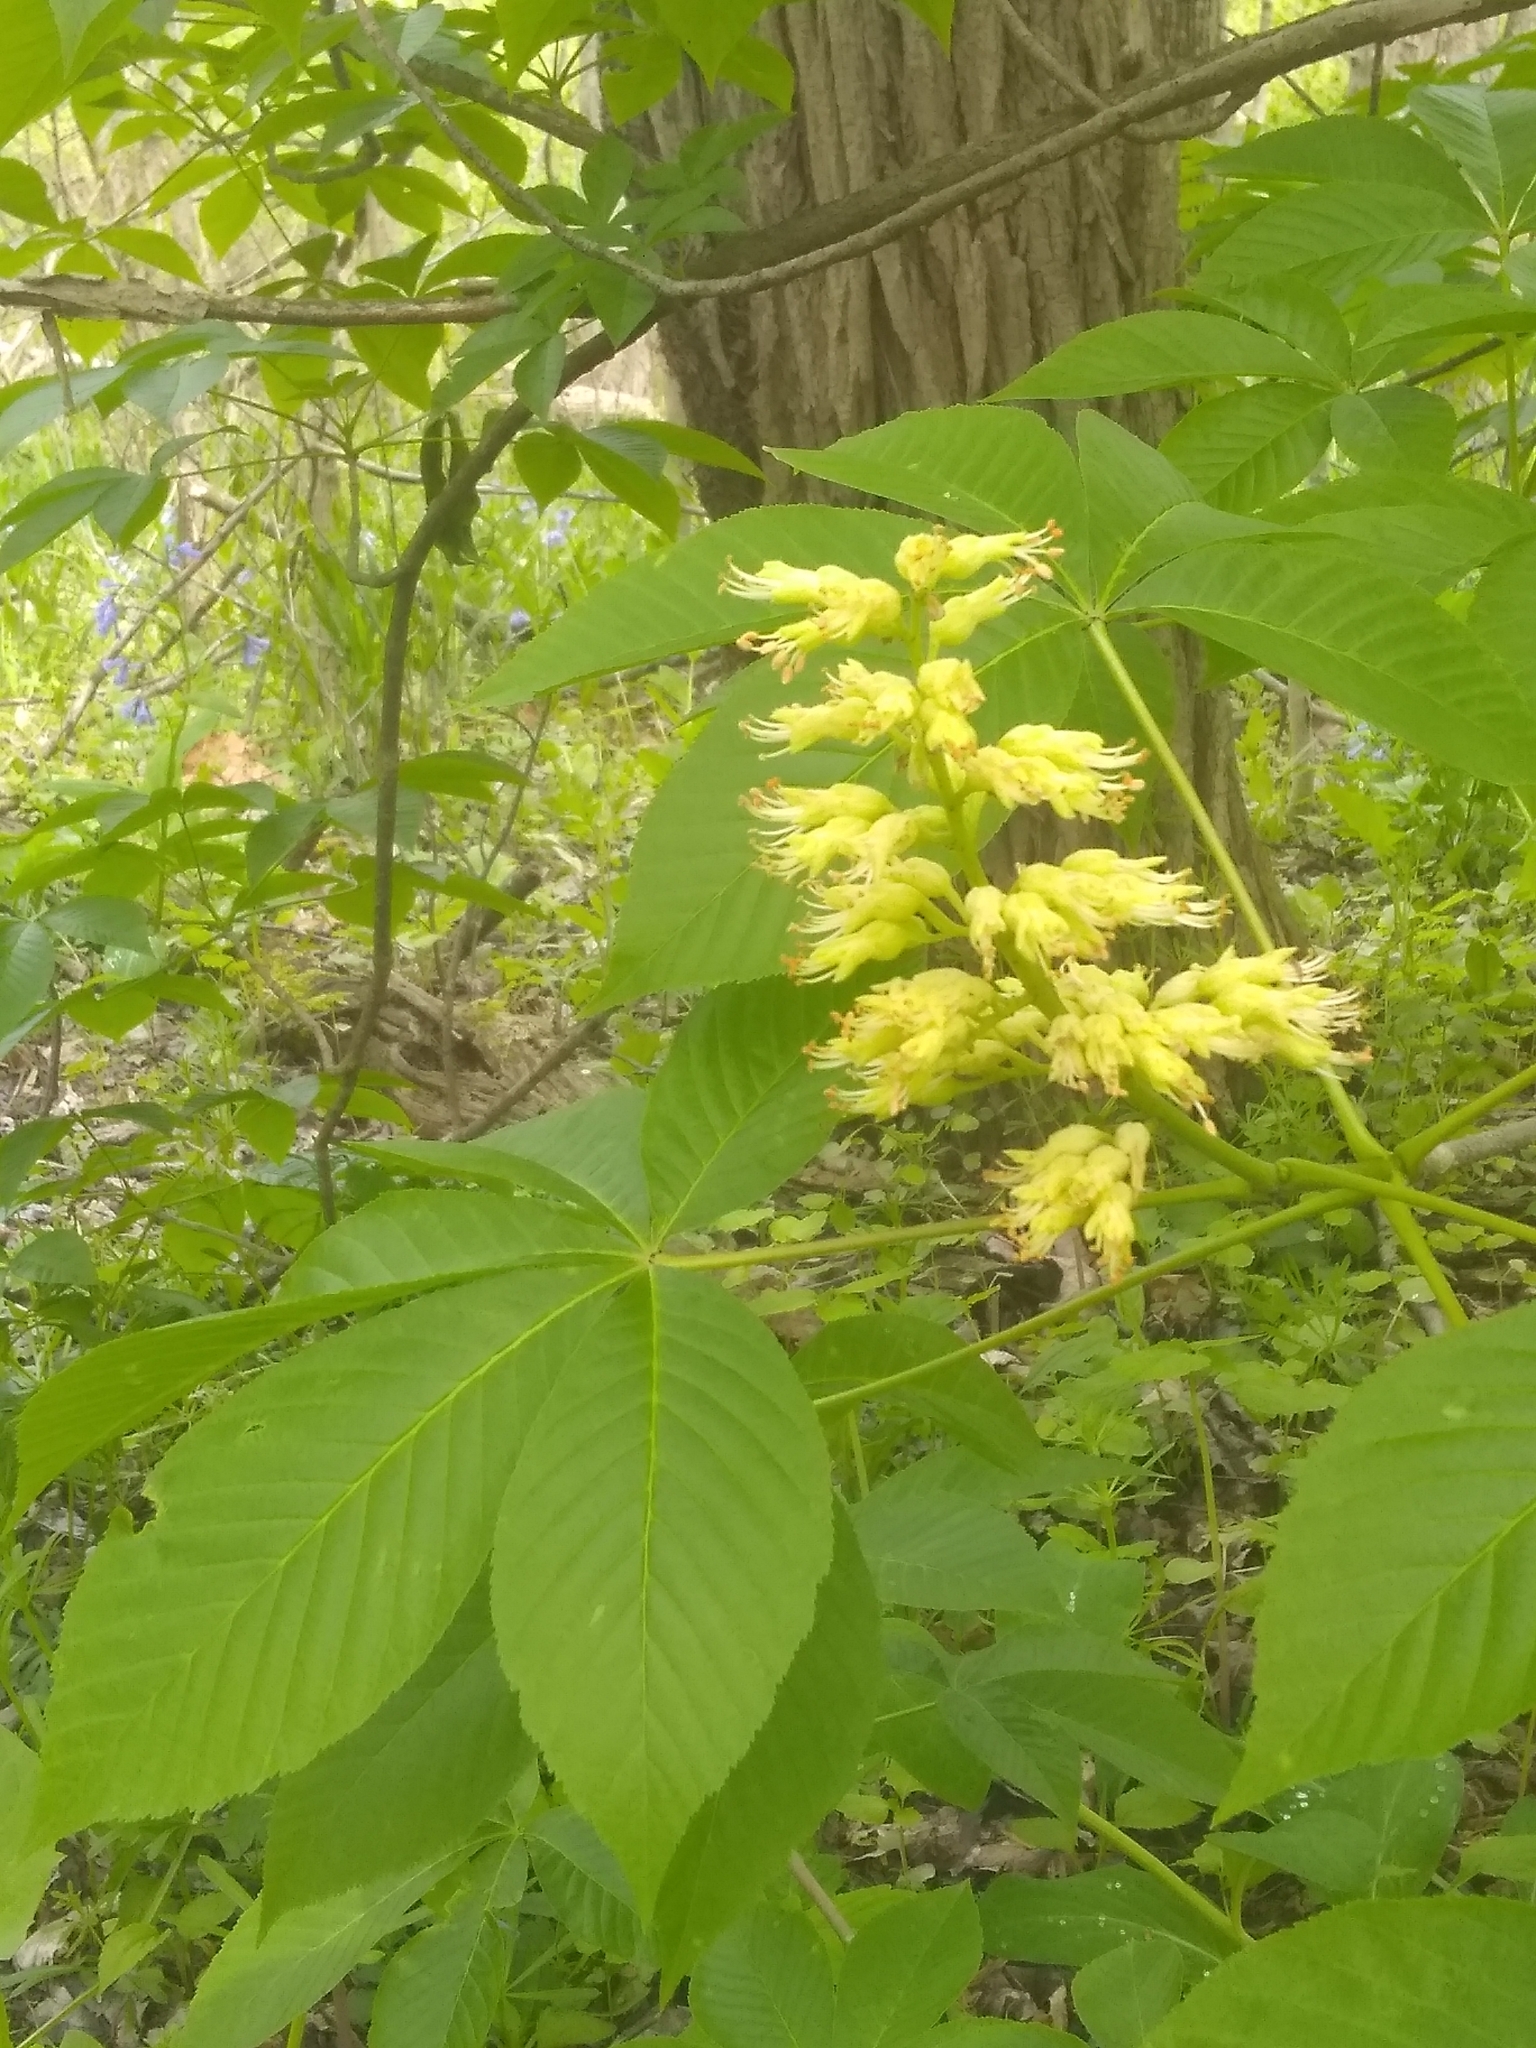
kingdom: Plantae
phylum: Tracheophyta
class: Magnoliopsida
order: Sapindales
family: Sapindaceae
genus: Aesculus
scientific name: Aesculus glabra
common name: Ohio buckeye
